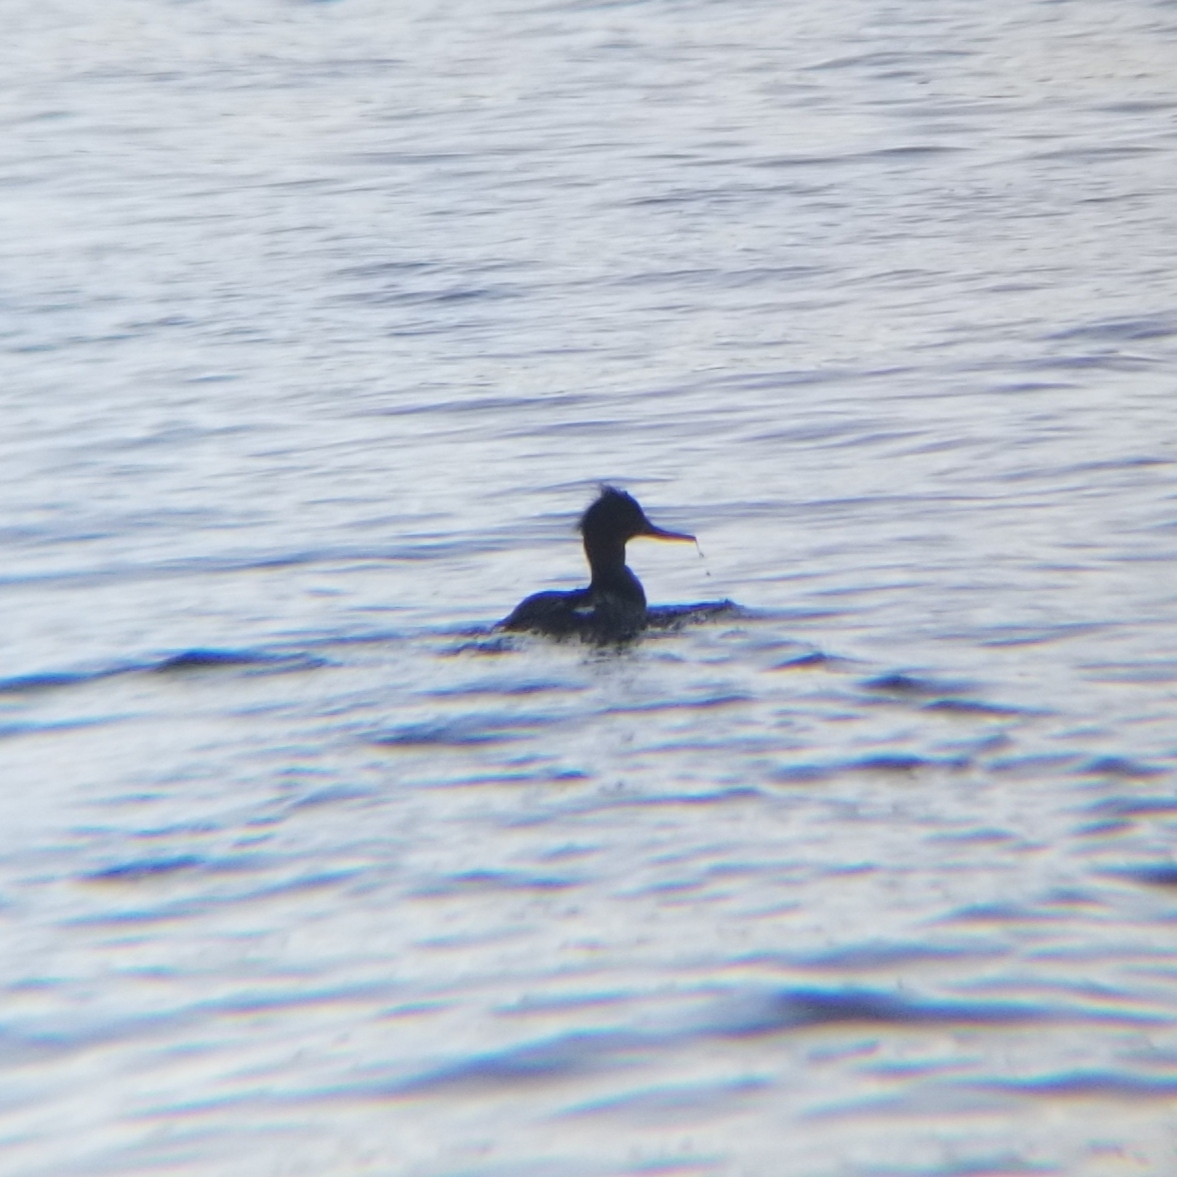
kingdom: Animalia
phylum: Chordata
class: Aves
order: Anseriformes
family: Anatidae
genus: Mergus
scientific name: Mergus serrator
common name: Red-breasted merganser
